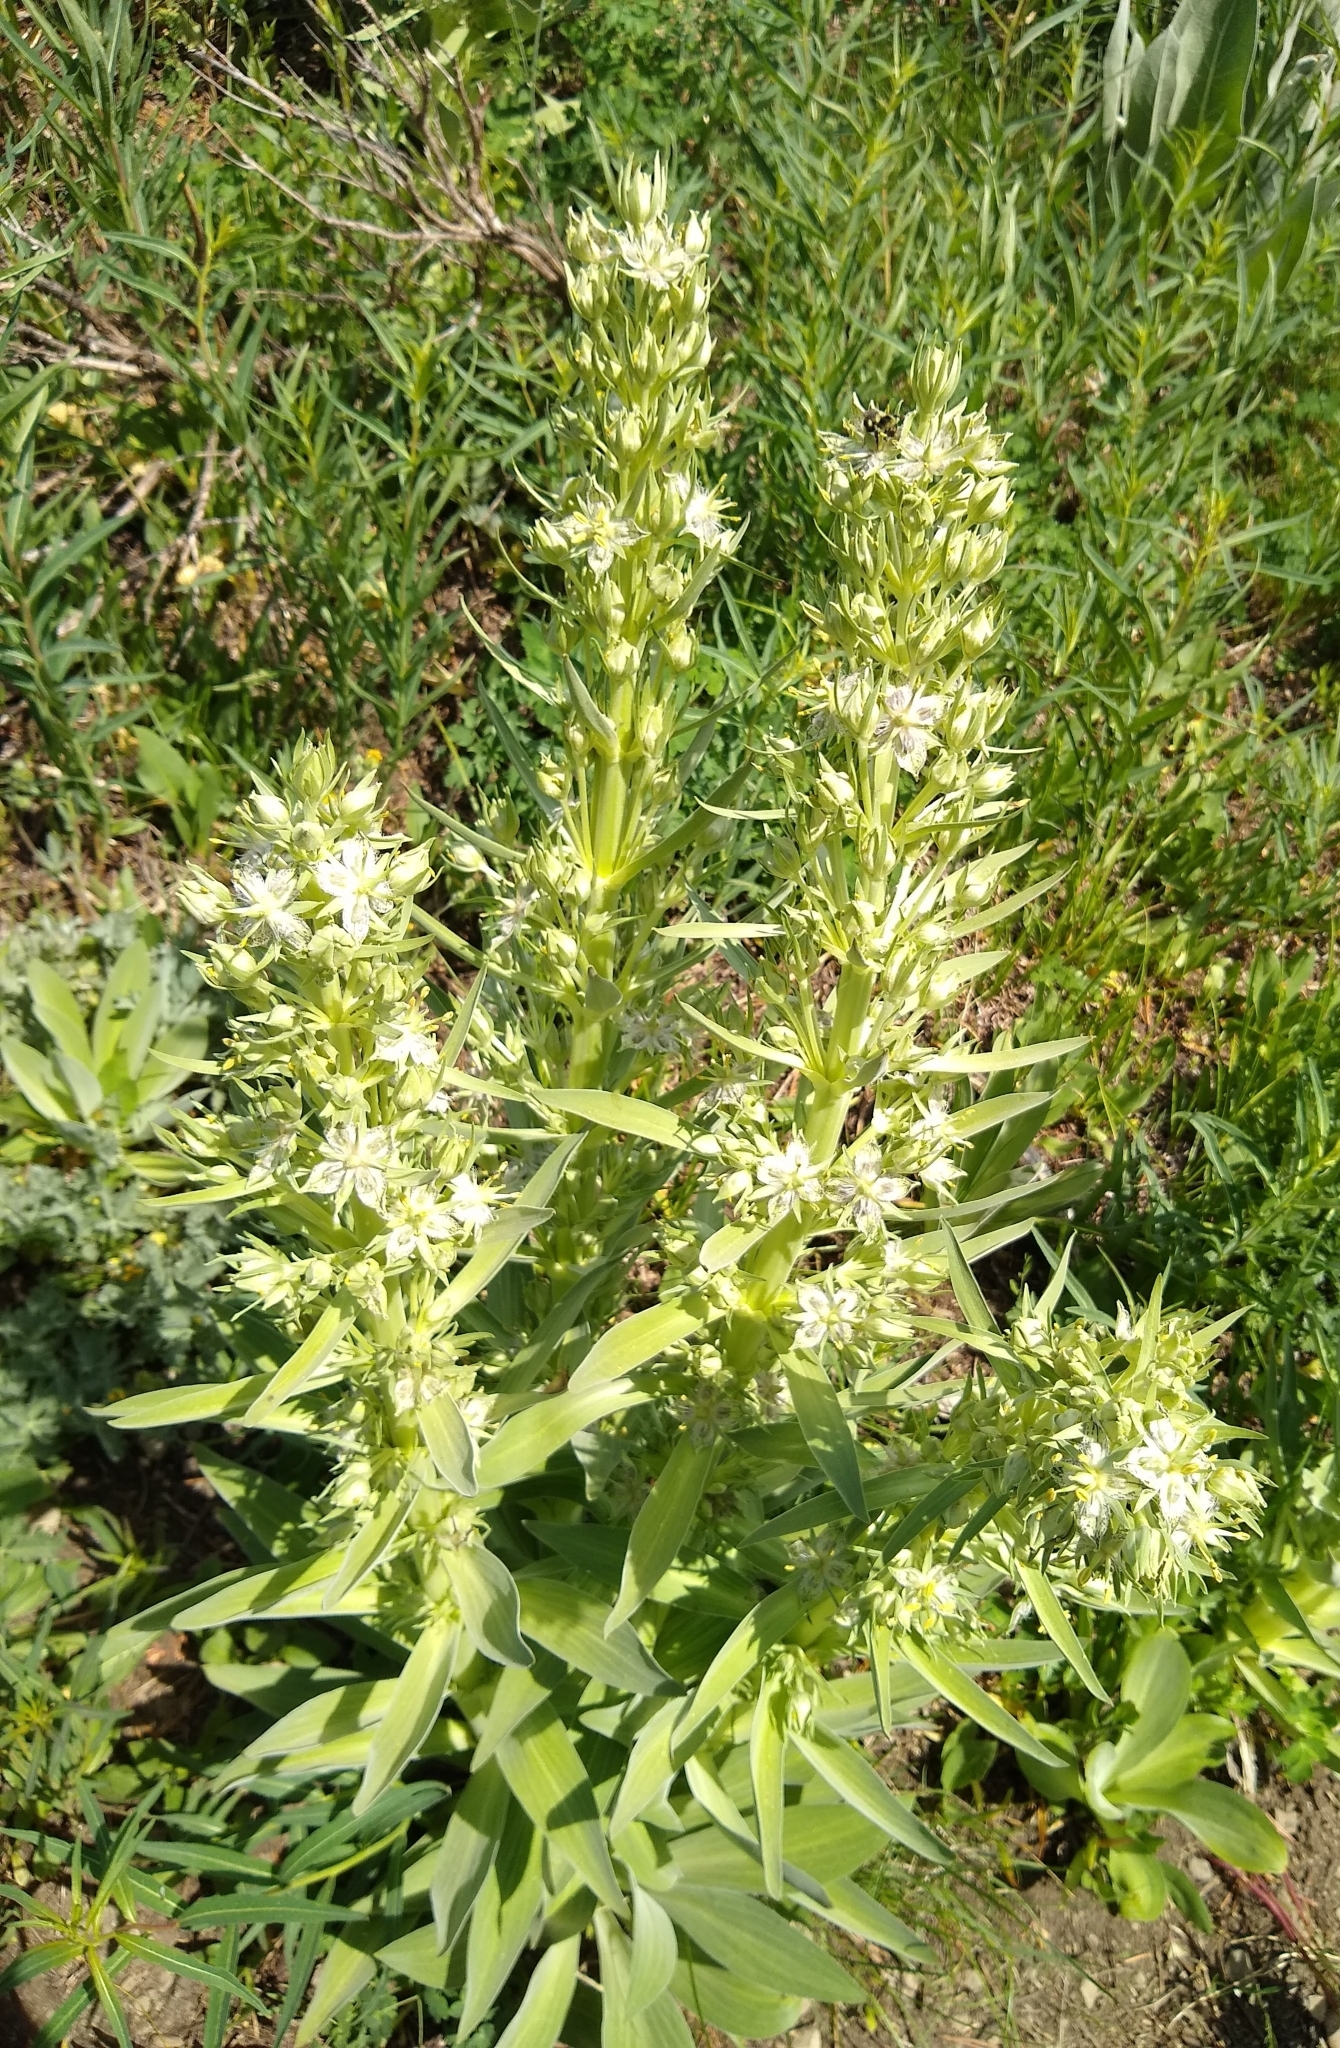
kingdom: Plantae
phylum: Tracheophyta
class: Magnoliopsida
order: Gentianales
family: Gentianaceae
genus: Frasera
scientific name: Frasera speciosa
